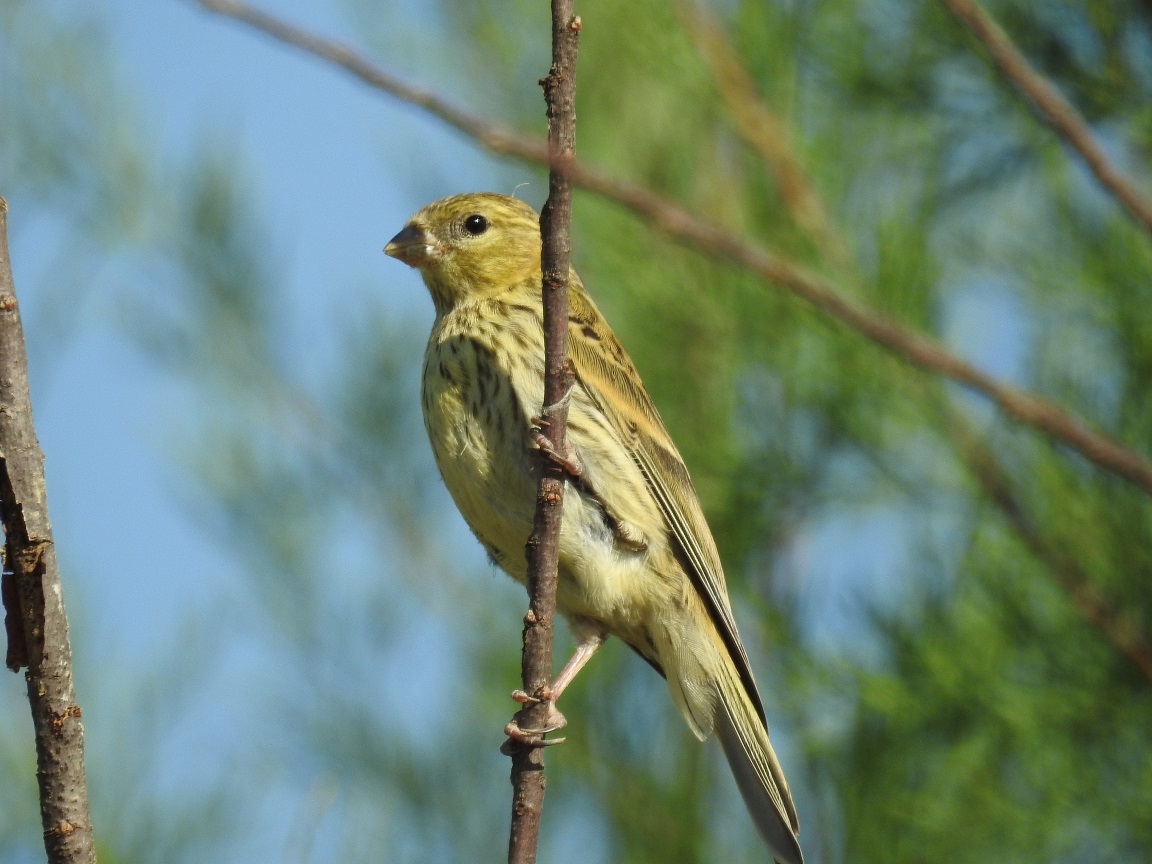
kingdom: Animalia
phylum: Chordata
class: Aves
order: Passeriformes
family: Fringillidae
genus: Serinus
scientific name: Serinus serinus
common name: European serin
